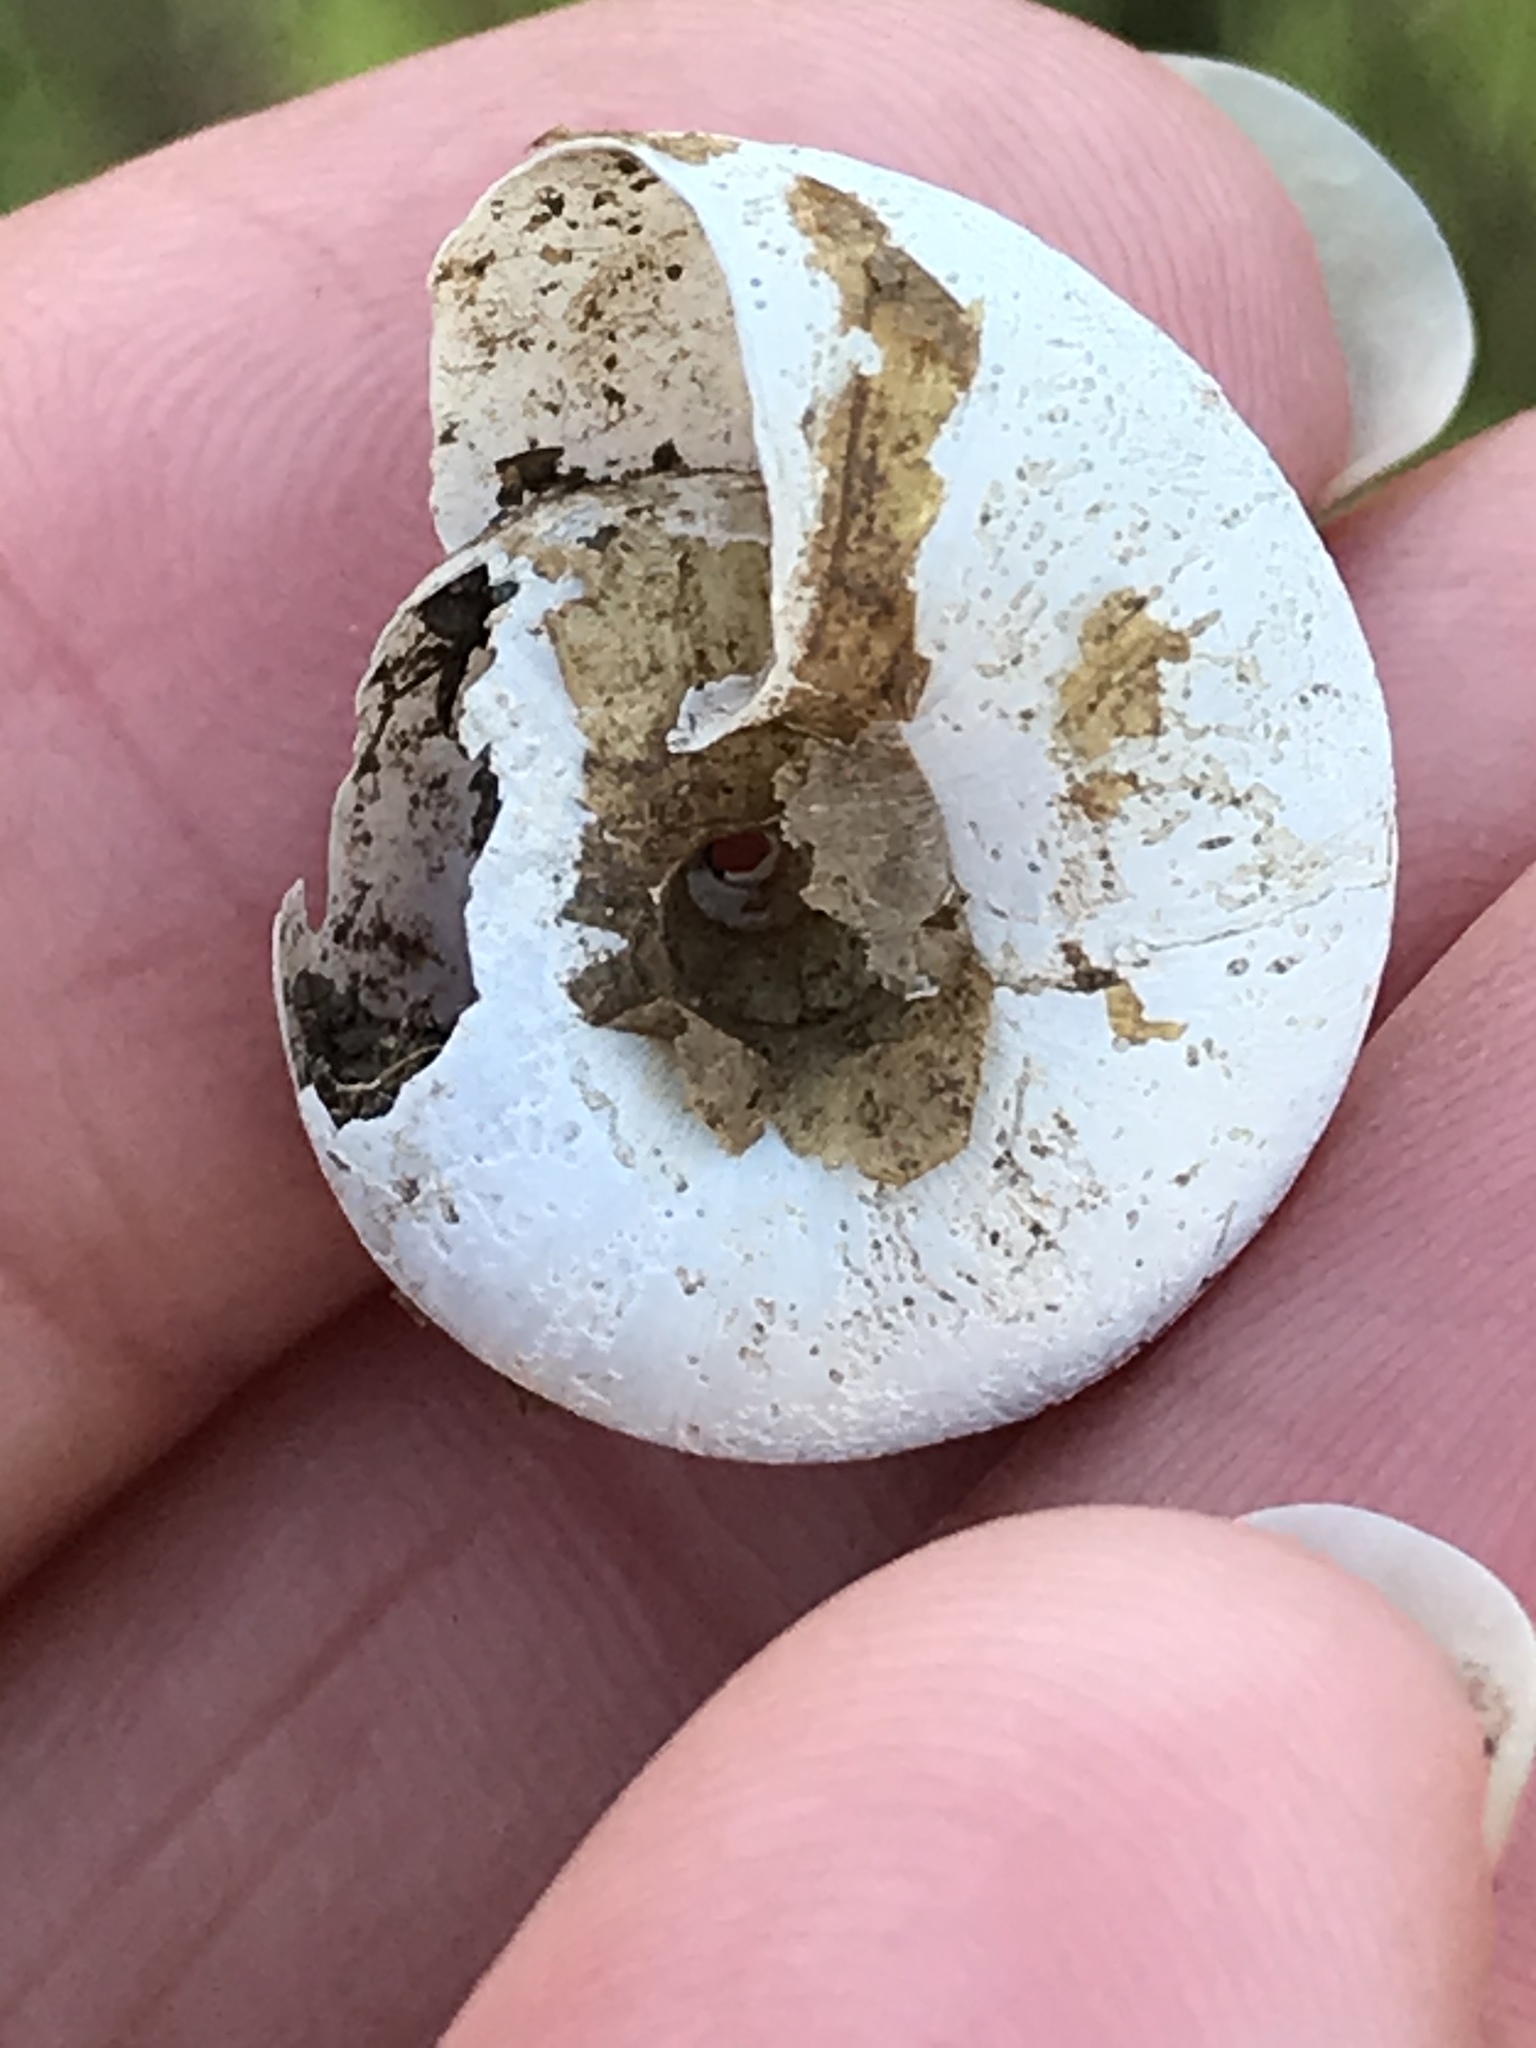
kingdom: Animalia
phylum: Mollusca
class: Gastropoda
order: Stylommatophora
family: Haplotrematidae
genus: Haplotrema
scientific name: Haplotrema minimum
